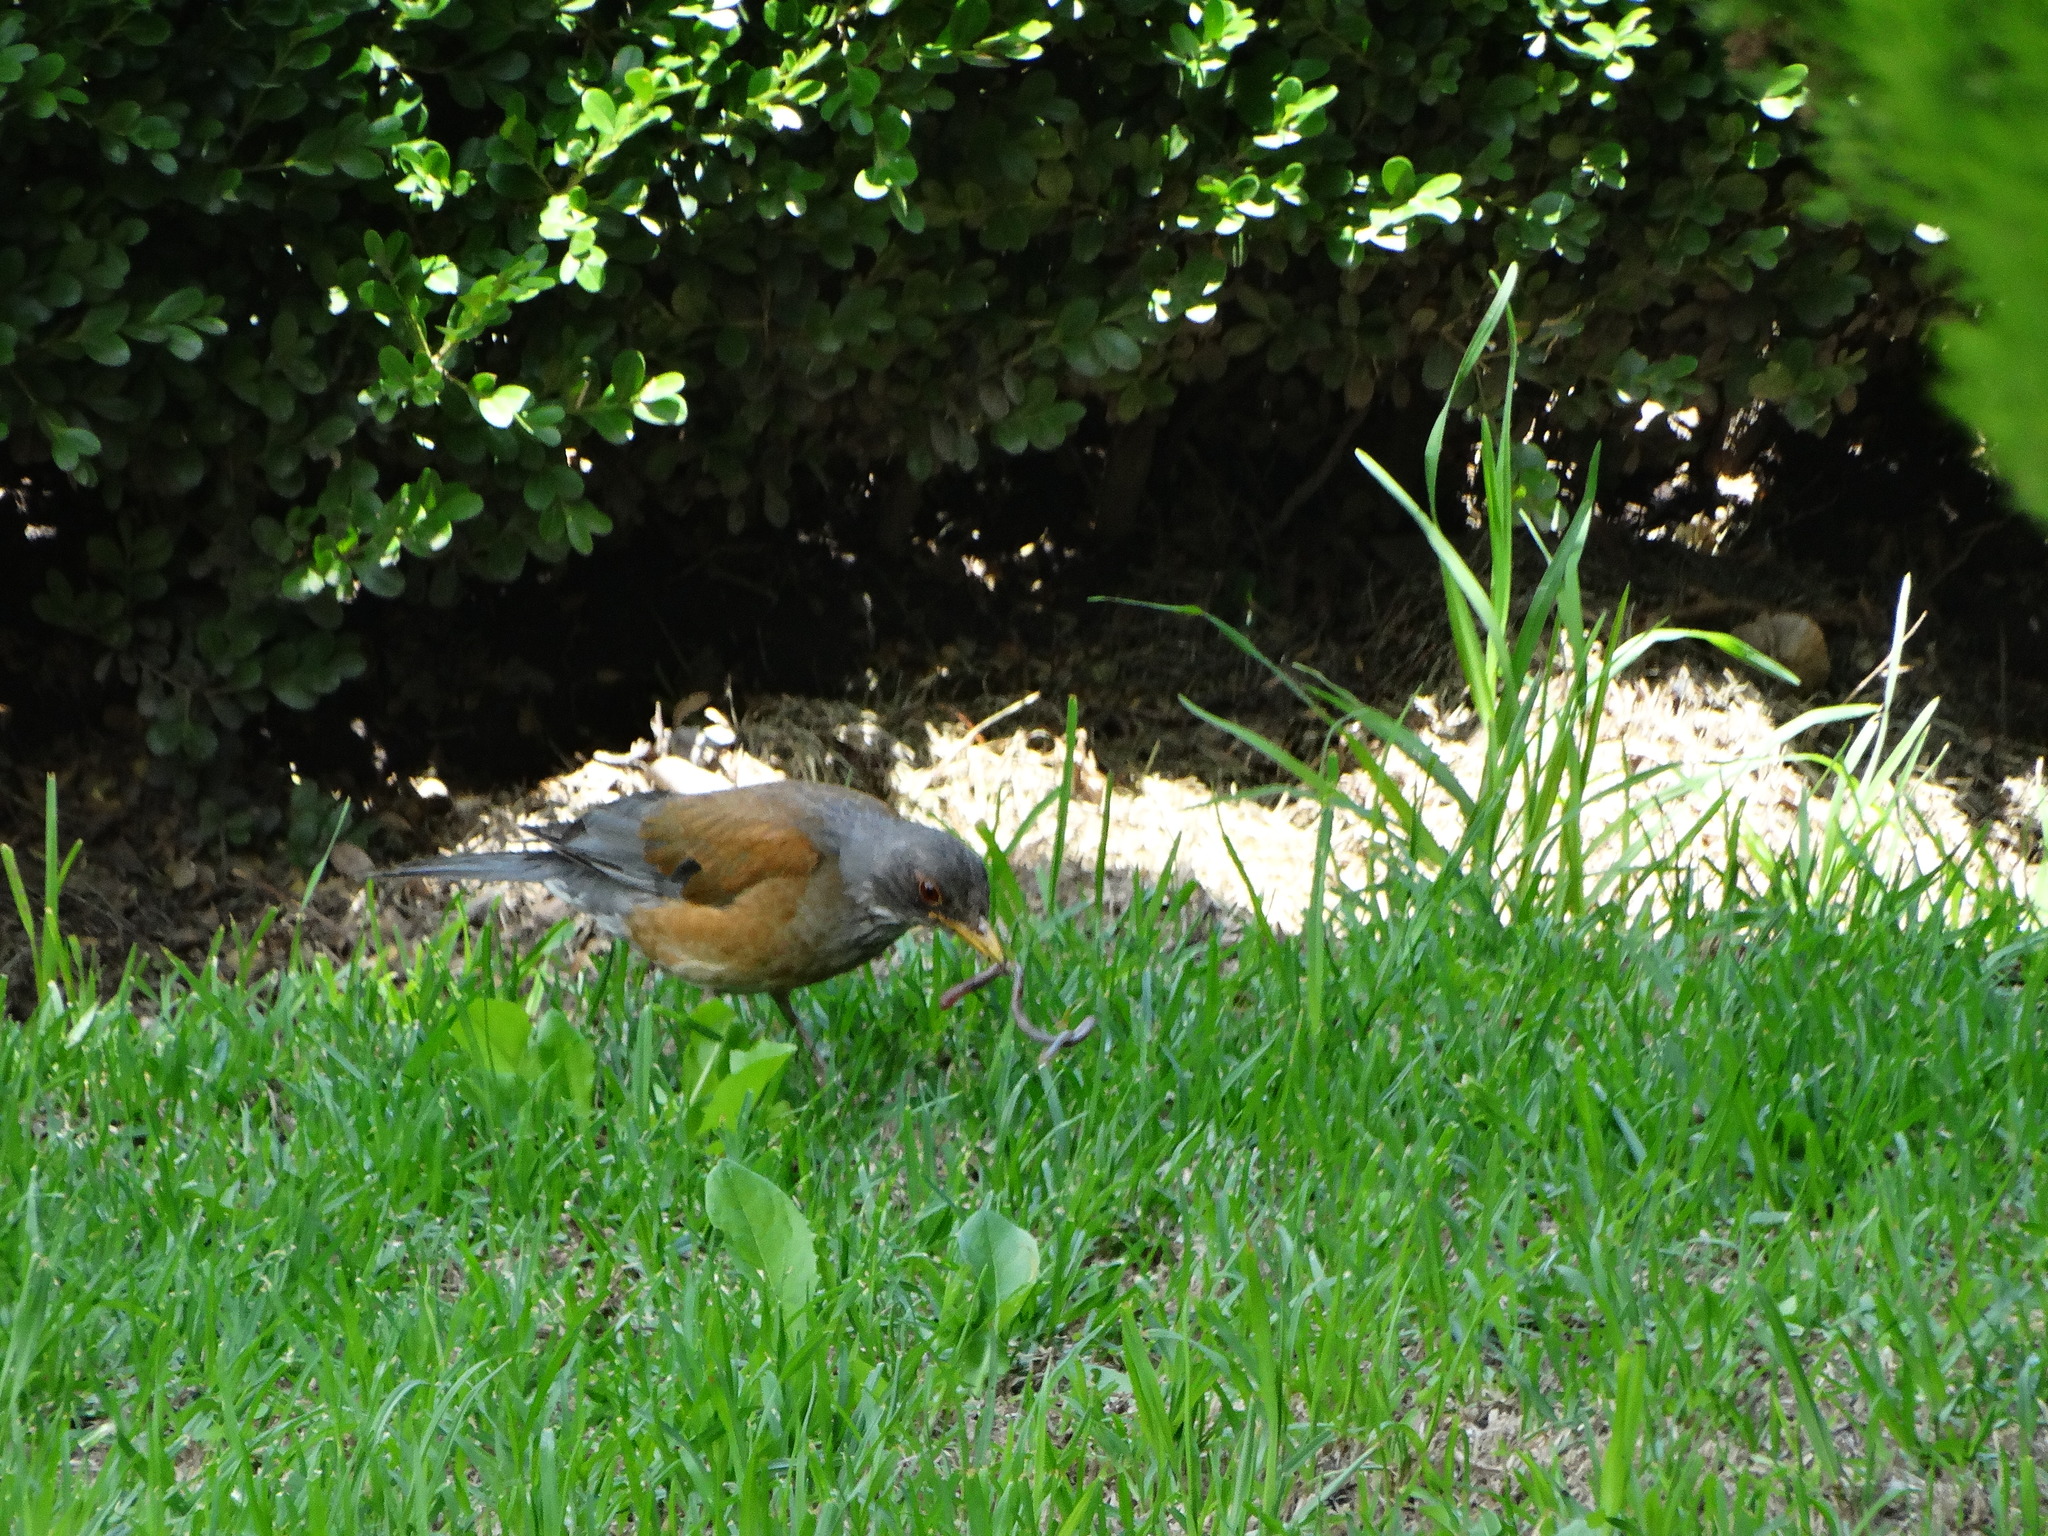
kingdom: Animalia
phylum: Chordata
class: Aves
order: Passeriformes
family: Turdidae
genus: Turdus
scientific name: Turdus rufopalliatus
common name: Rufous-backed robin
